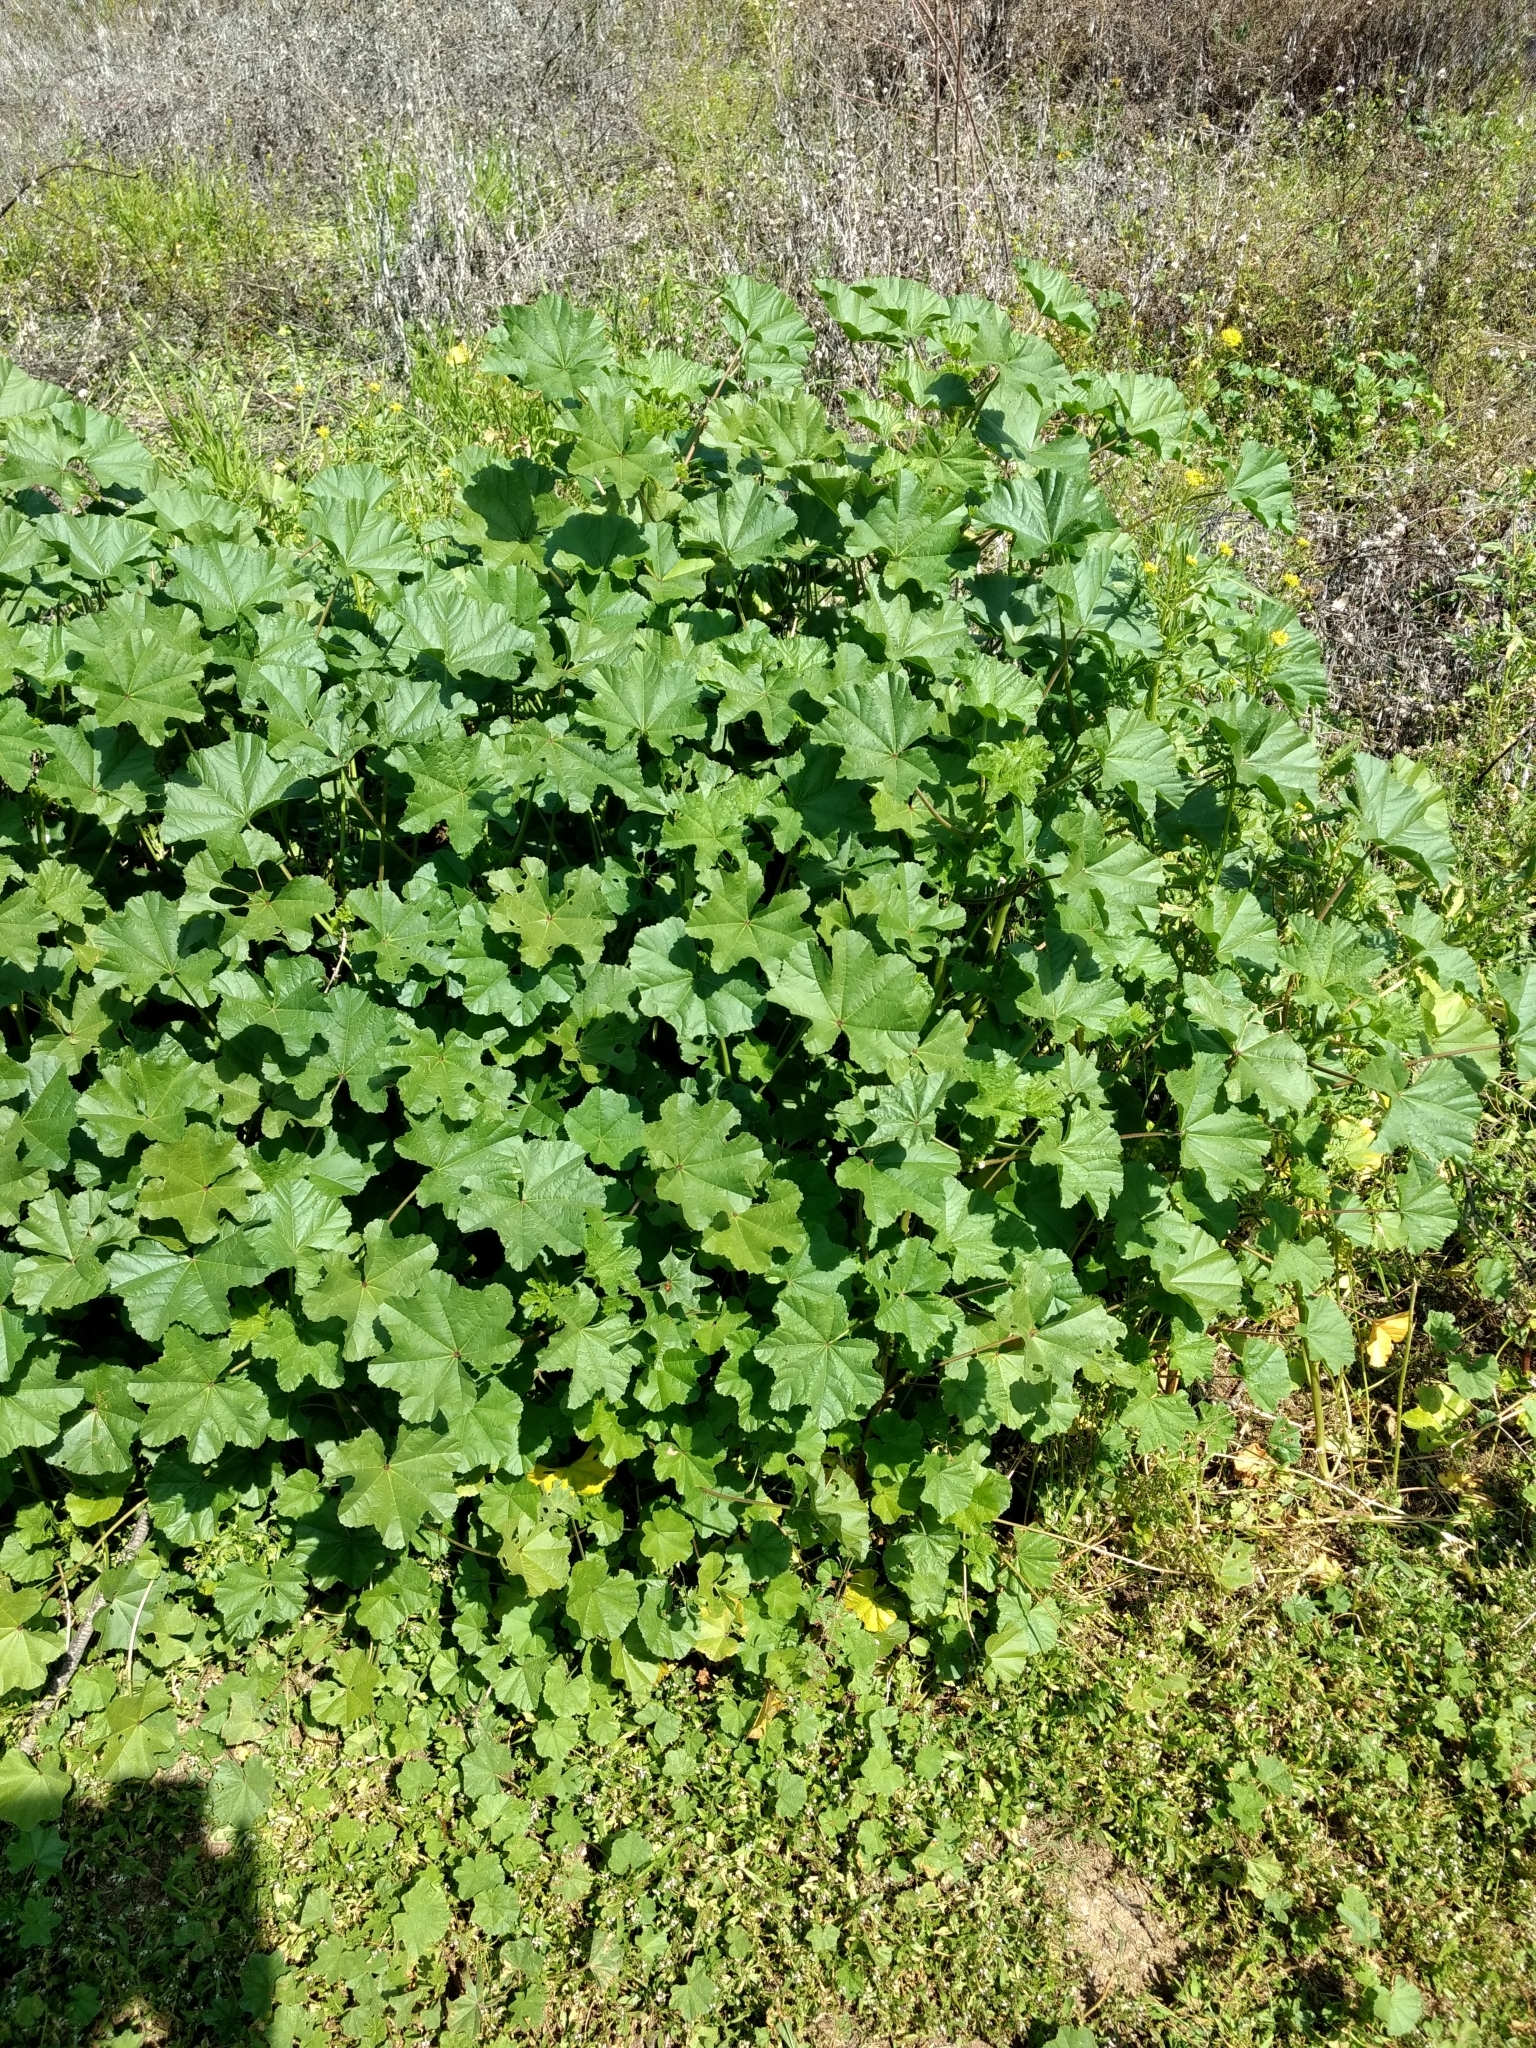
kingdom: Plantae
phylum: Tracheophyta
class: Magnoliopsida
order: Malvales
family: Malvaceae
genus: Malva
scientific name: Malva parviflora
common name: Least mallow
